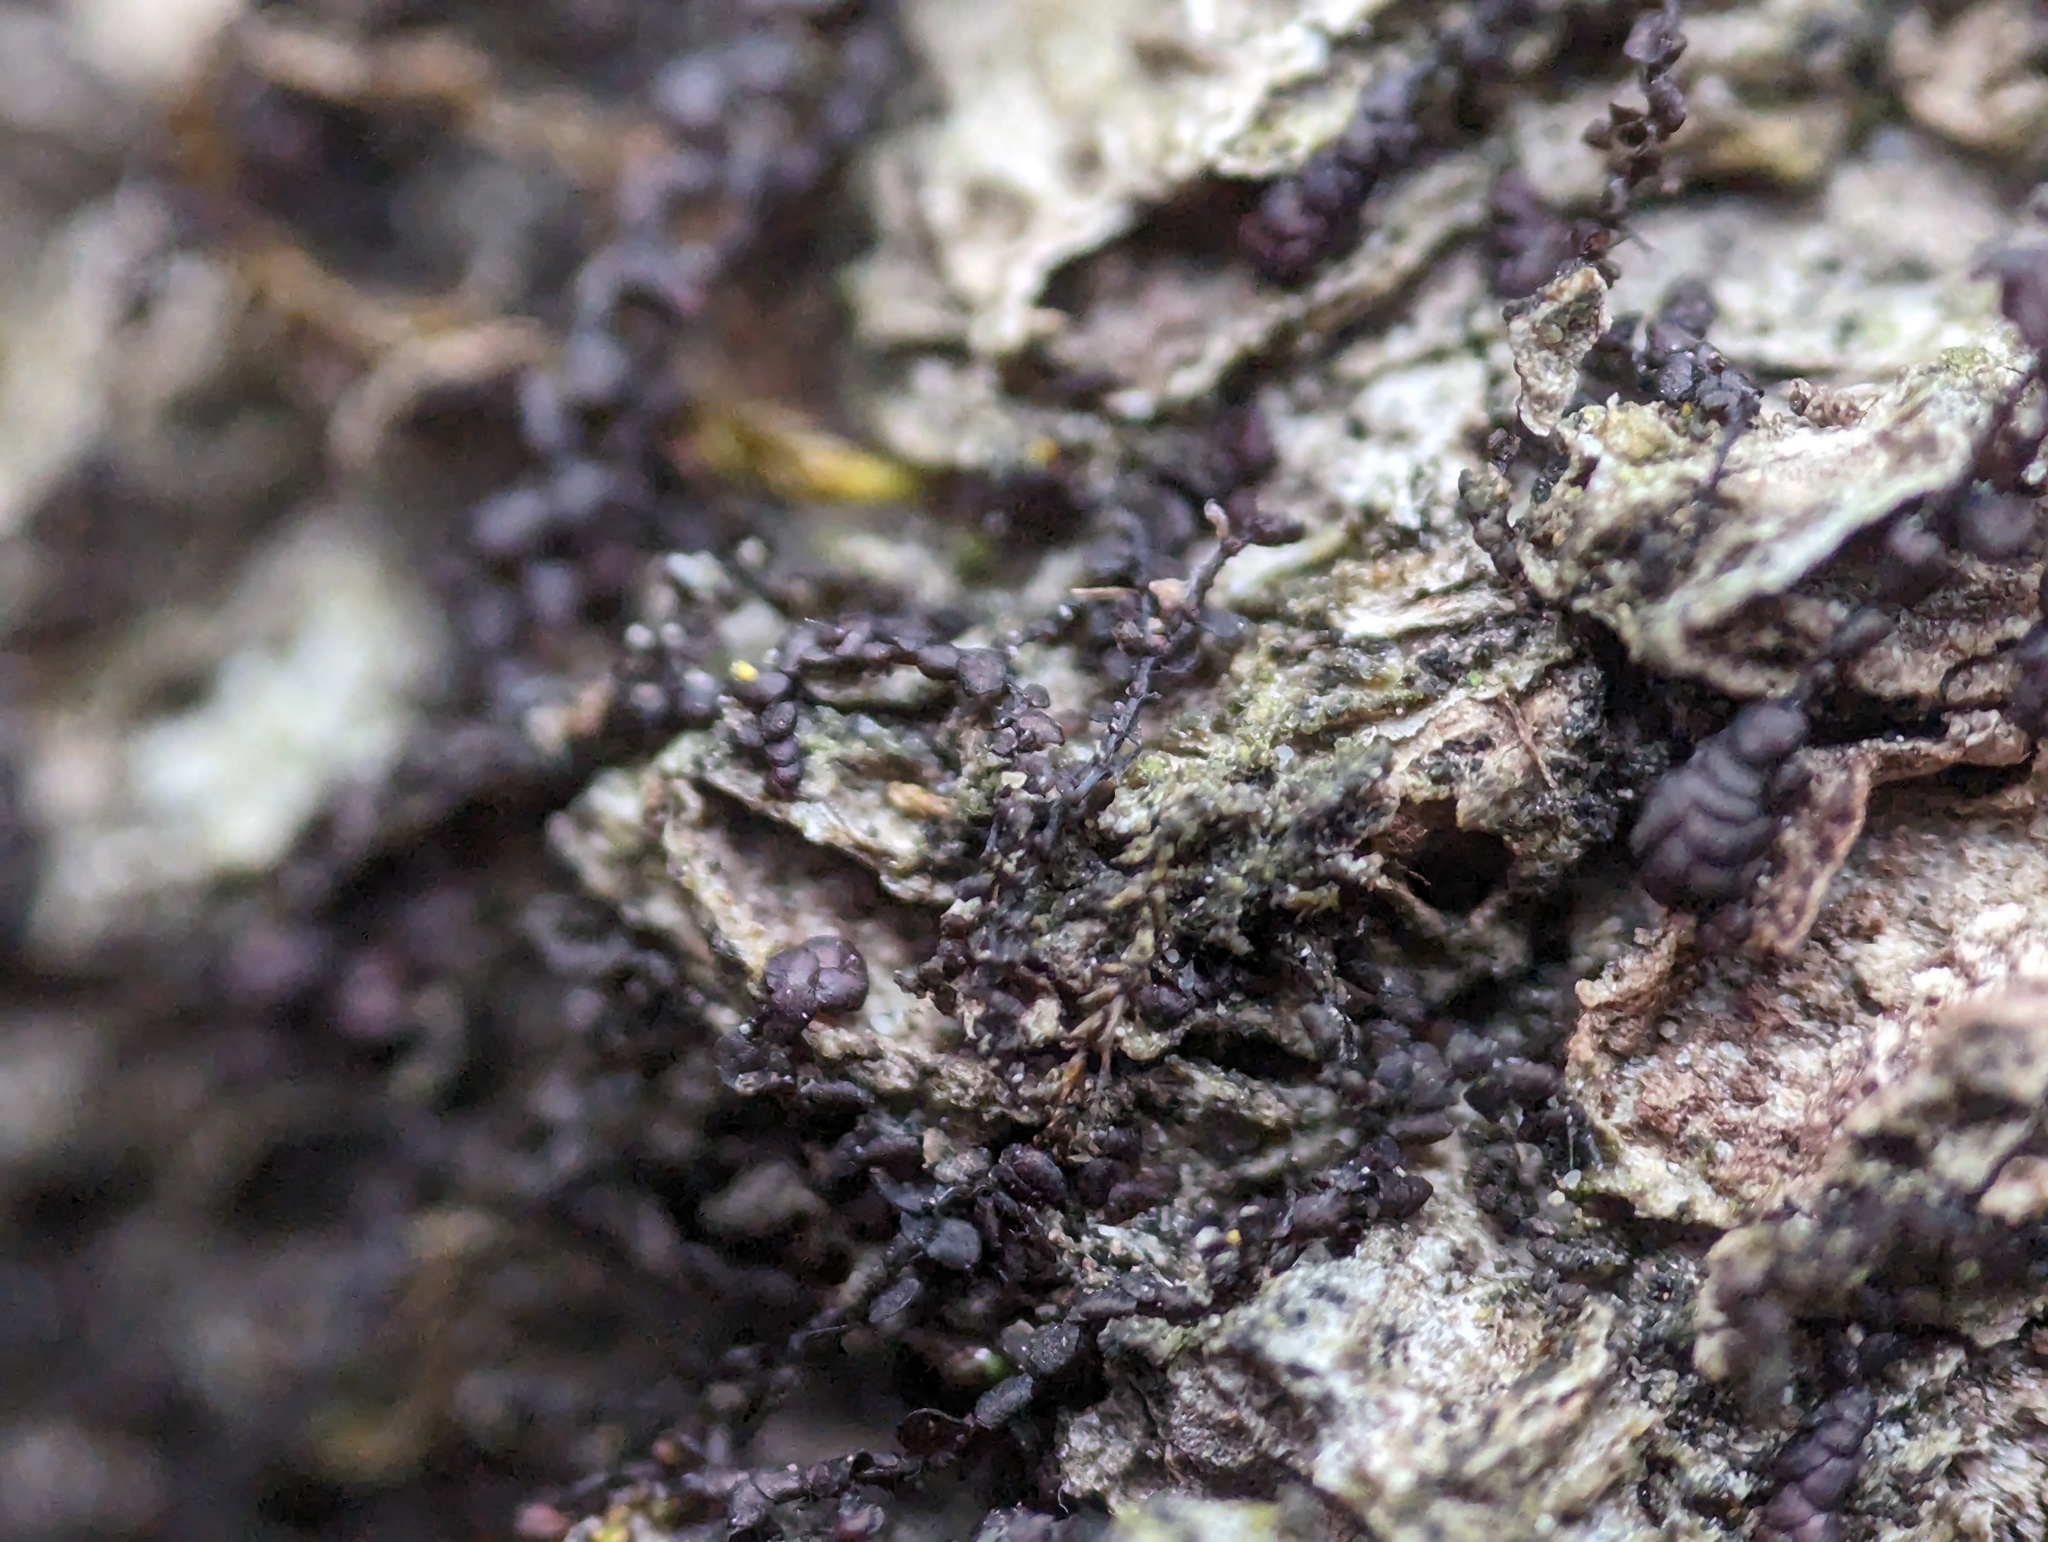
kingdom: Plantae
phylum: Marchantiophyta
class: Jungermanniopsida
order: Porellales
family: Frullaniaceae
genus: Frullania
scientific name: Frullania eboracensis
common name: New york scalewort
